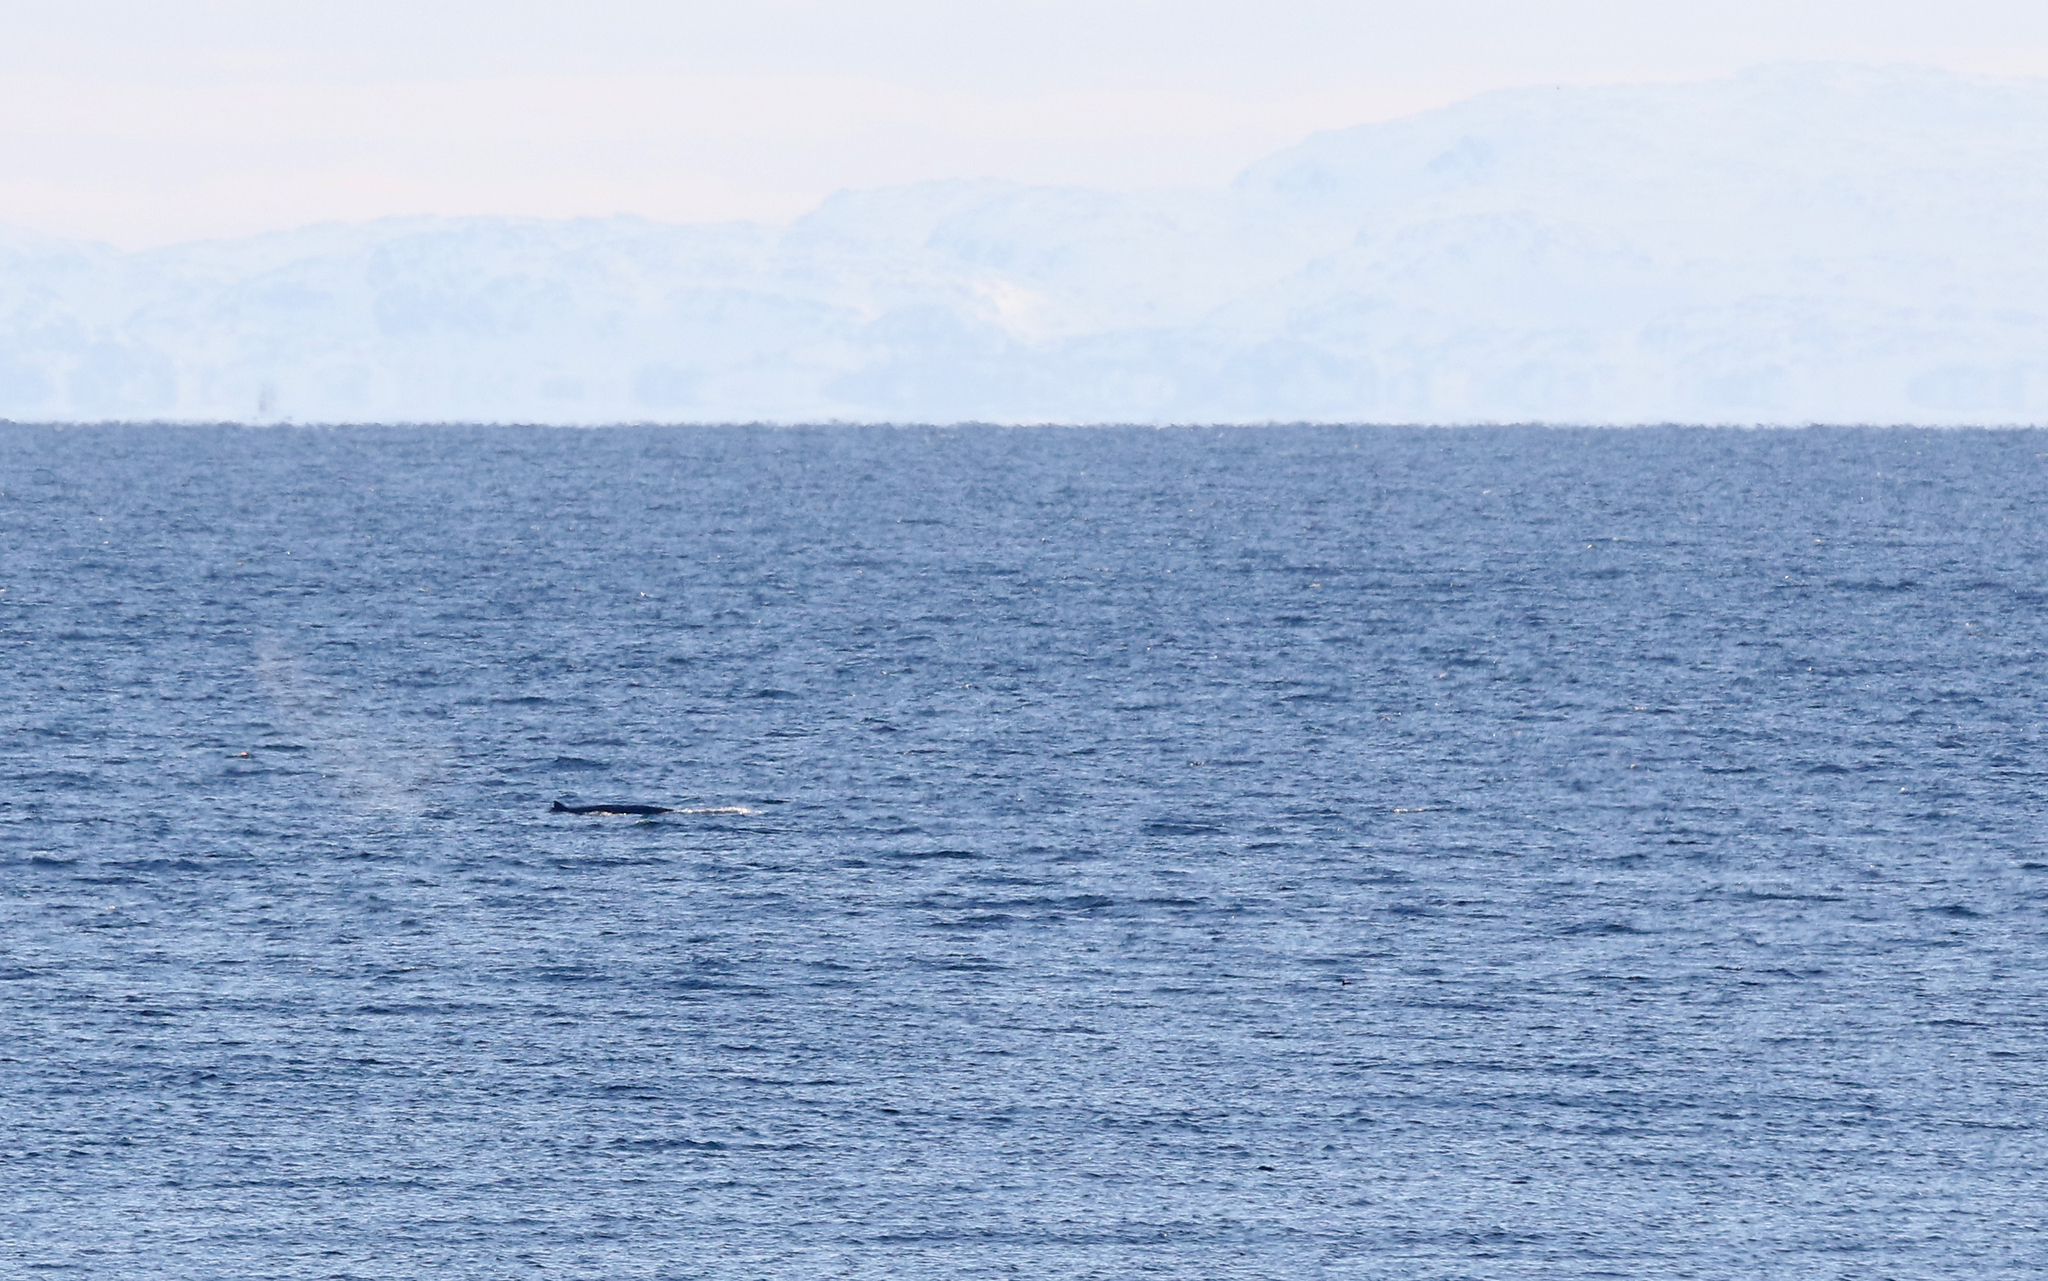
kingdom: Animalia
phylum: Chordata
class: Mammalia
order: Cetacea
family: Balaenopteridae
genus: Megaptera
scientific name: Megaptera novaeangliae
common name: Humpback whale
